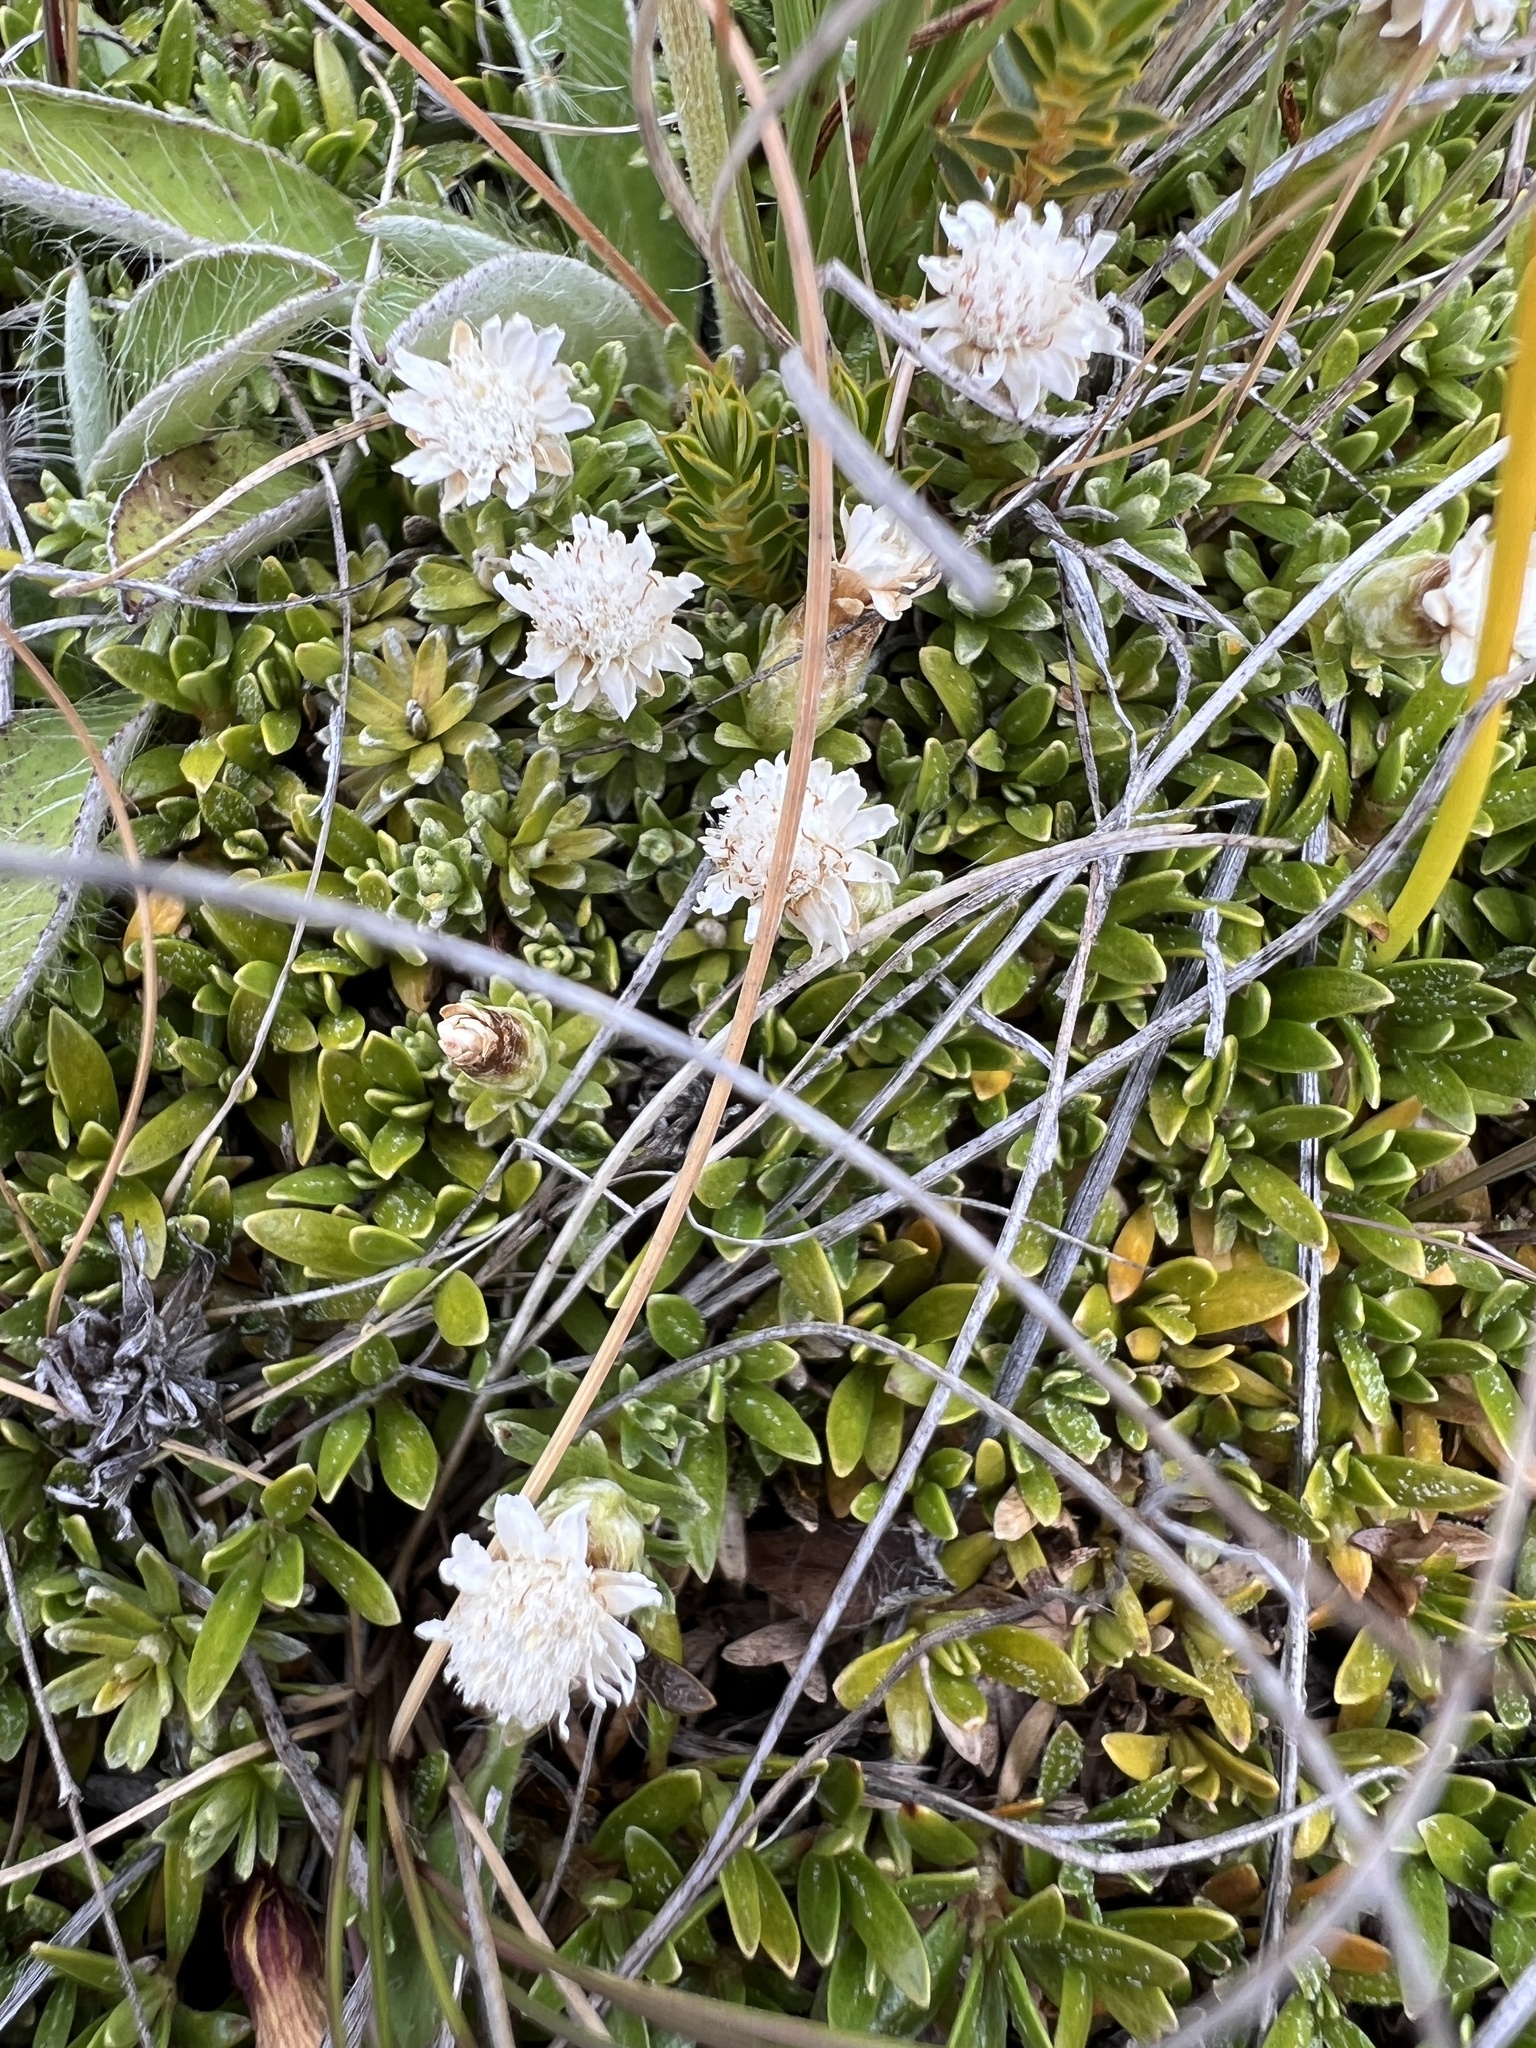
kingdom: Plantae
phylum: Tracheophyta
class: Magnoliopsida
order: Asterales
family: Asteraceae
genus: Raoulia
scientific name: Raoulia subsericea
